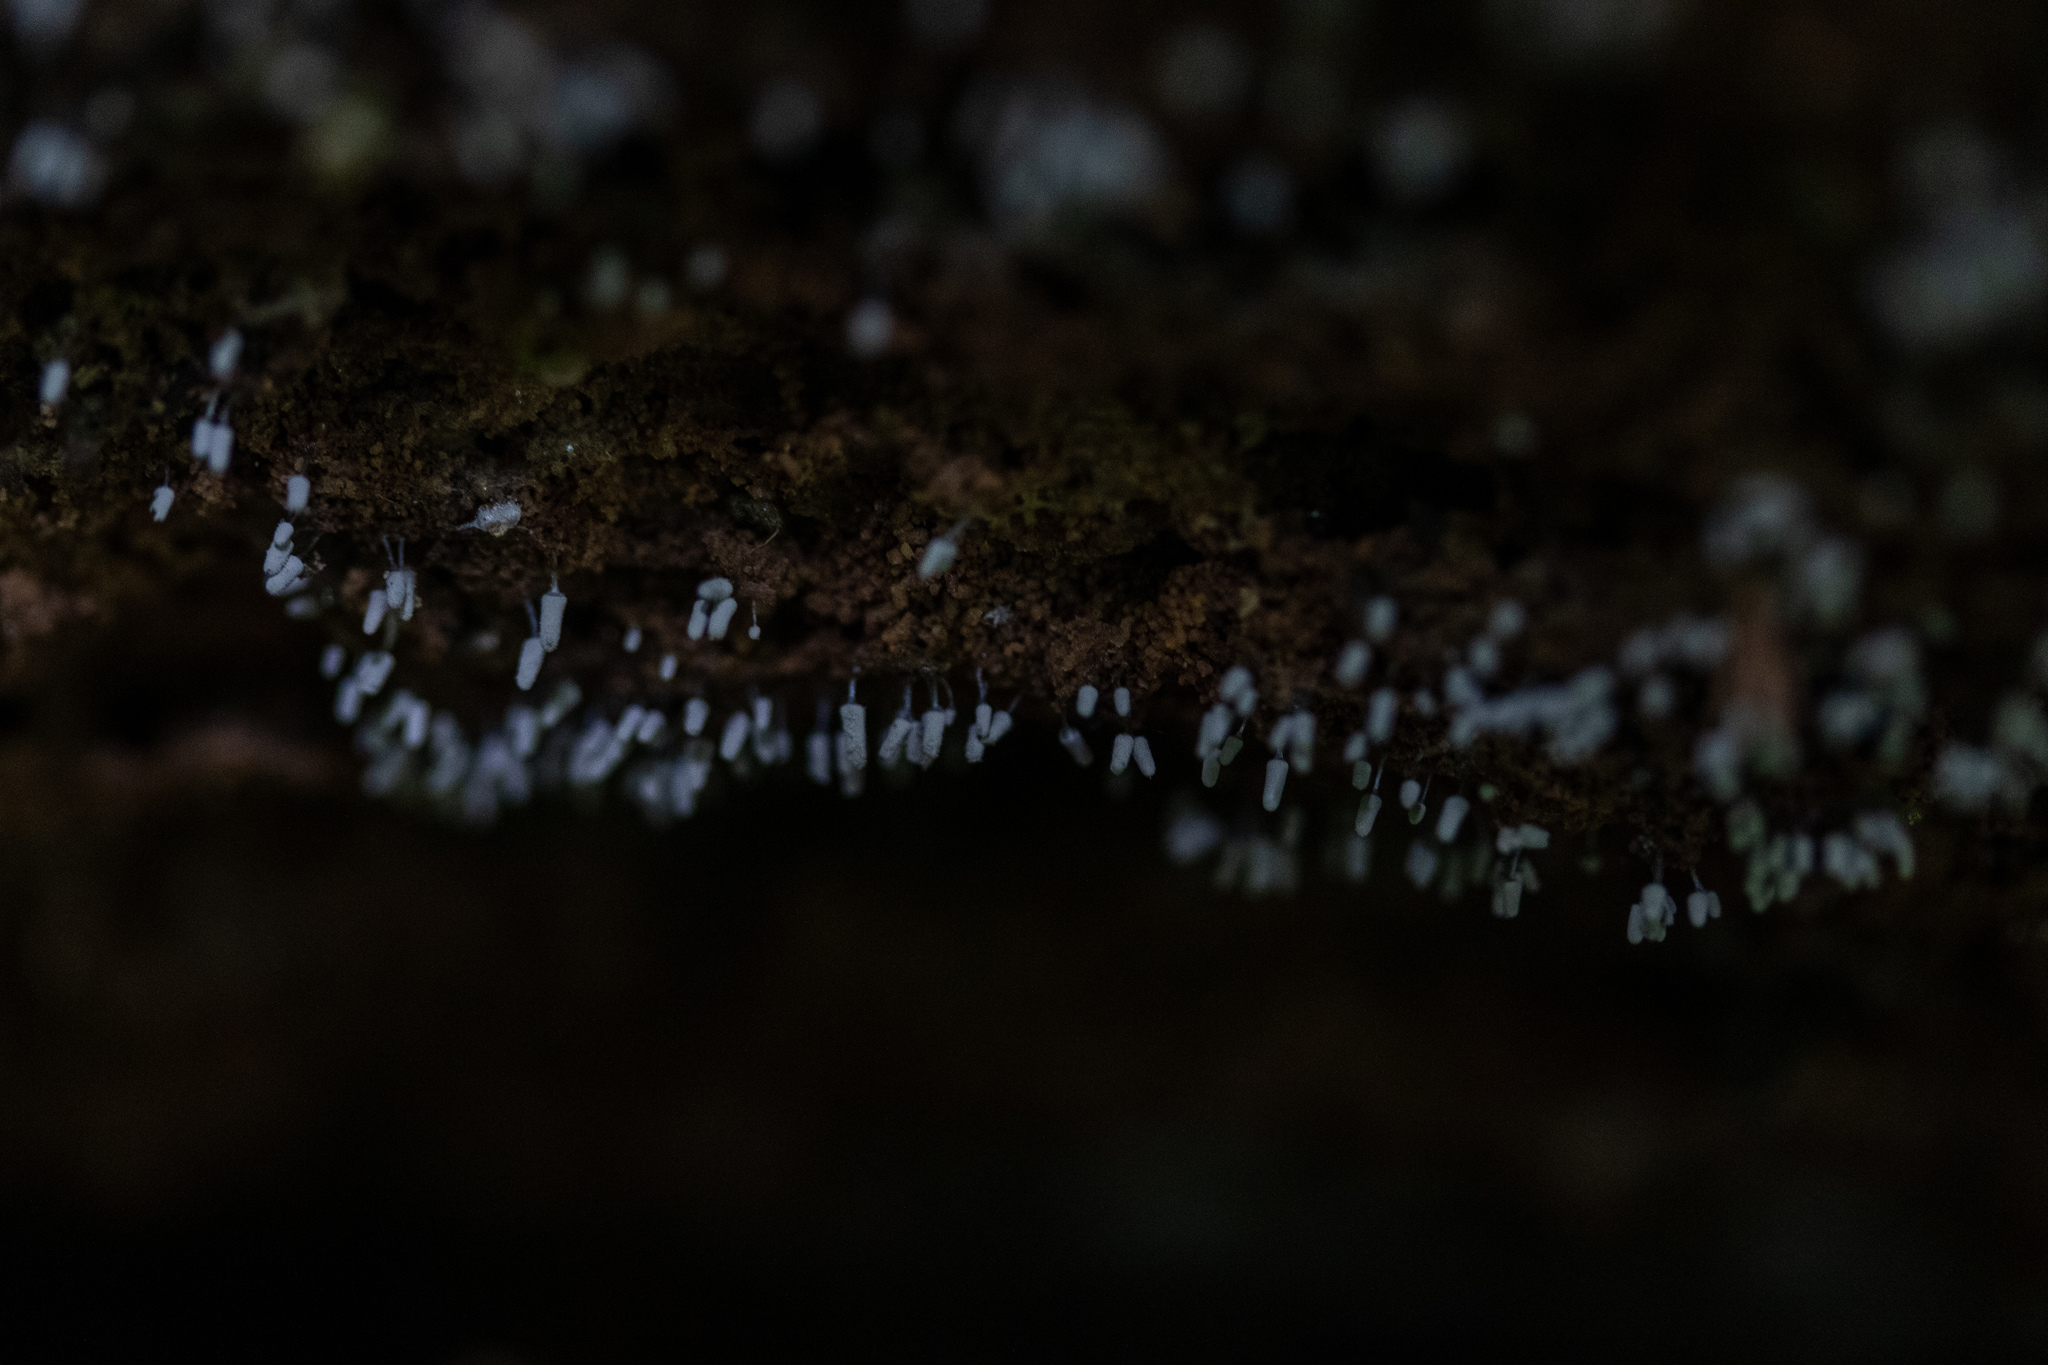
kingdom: Protozoa
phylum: Mycetozoa
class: Myxomycetes
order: Trichiales
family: Arcyriaceae
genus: Arcyria
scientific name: Arcyria cinerea
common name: White carnival candy slime mold
